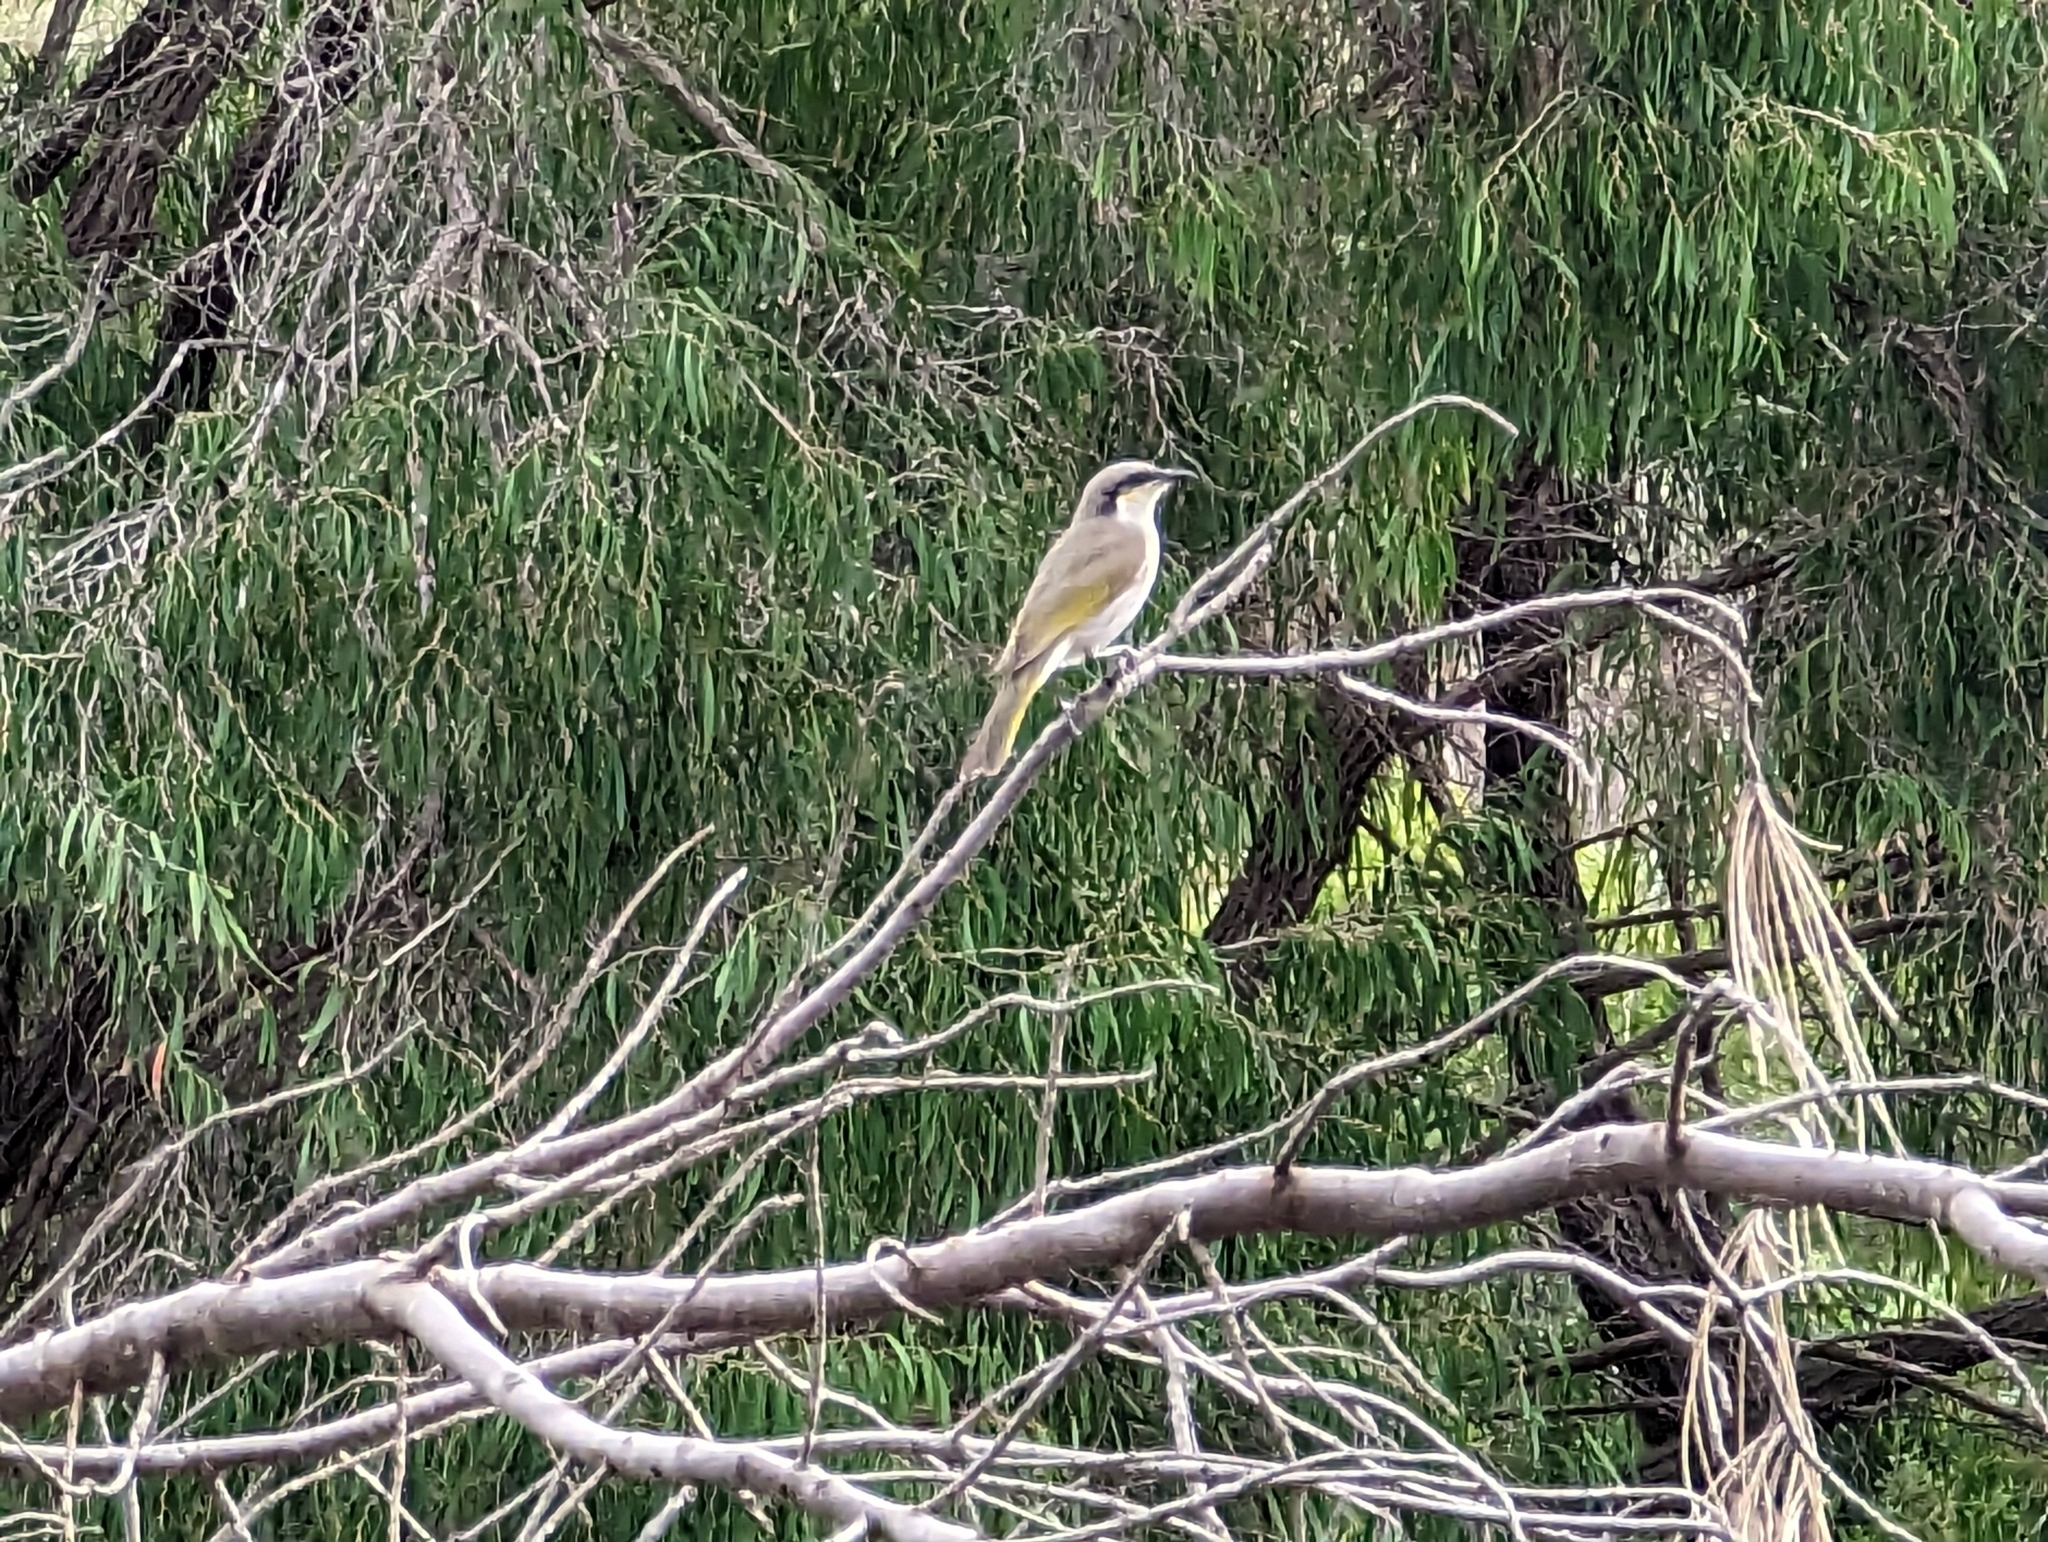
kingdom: Animalia
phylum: Chordata
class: Aves
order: Passeriformes
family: Meliphagidae
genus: Gavicalis
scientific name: Gavicalis virescens
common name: Singing honeyeater
